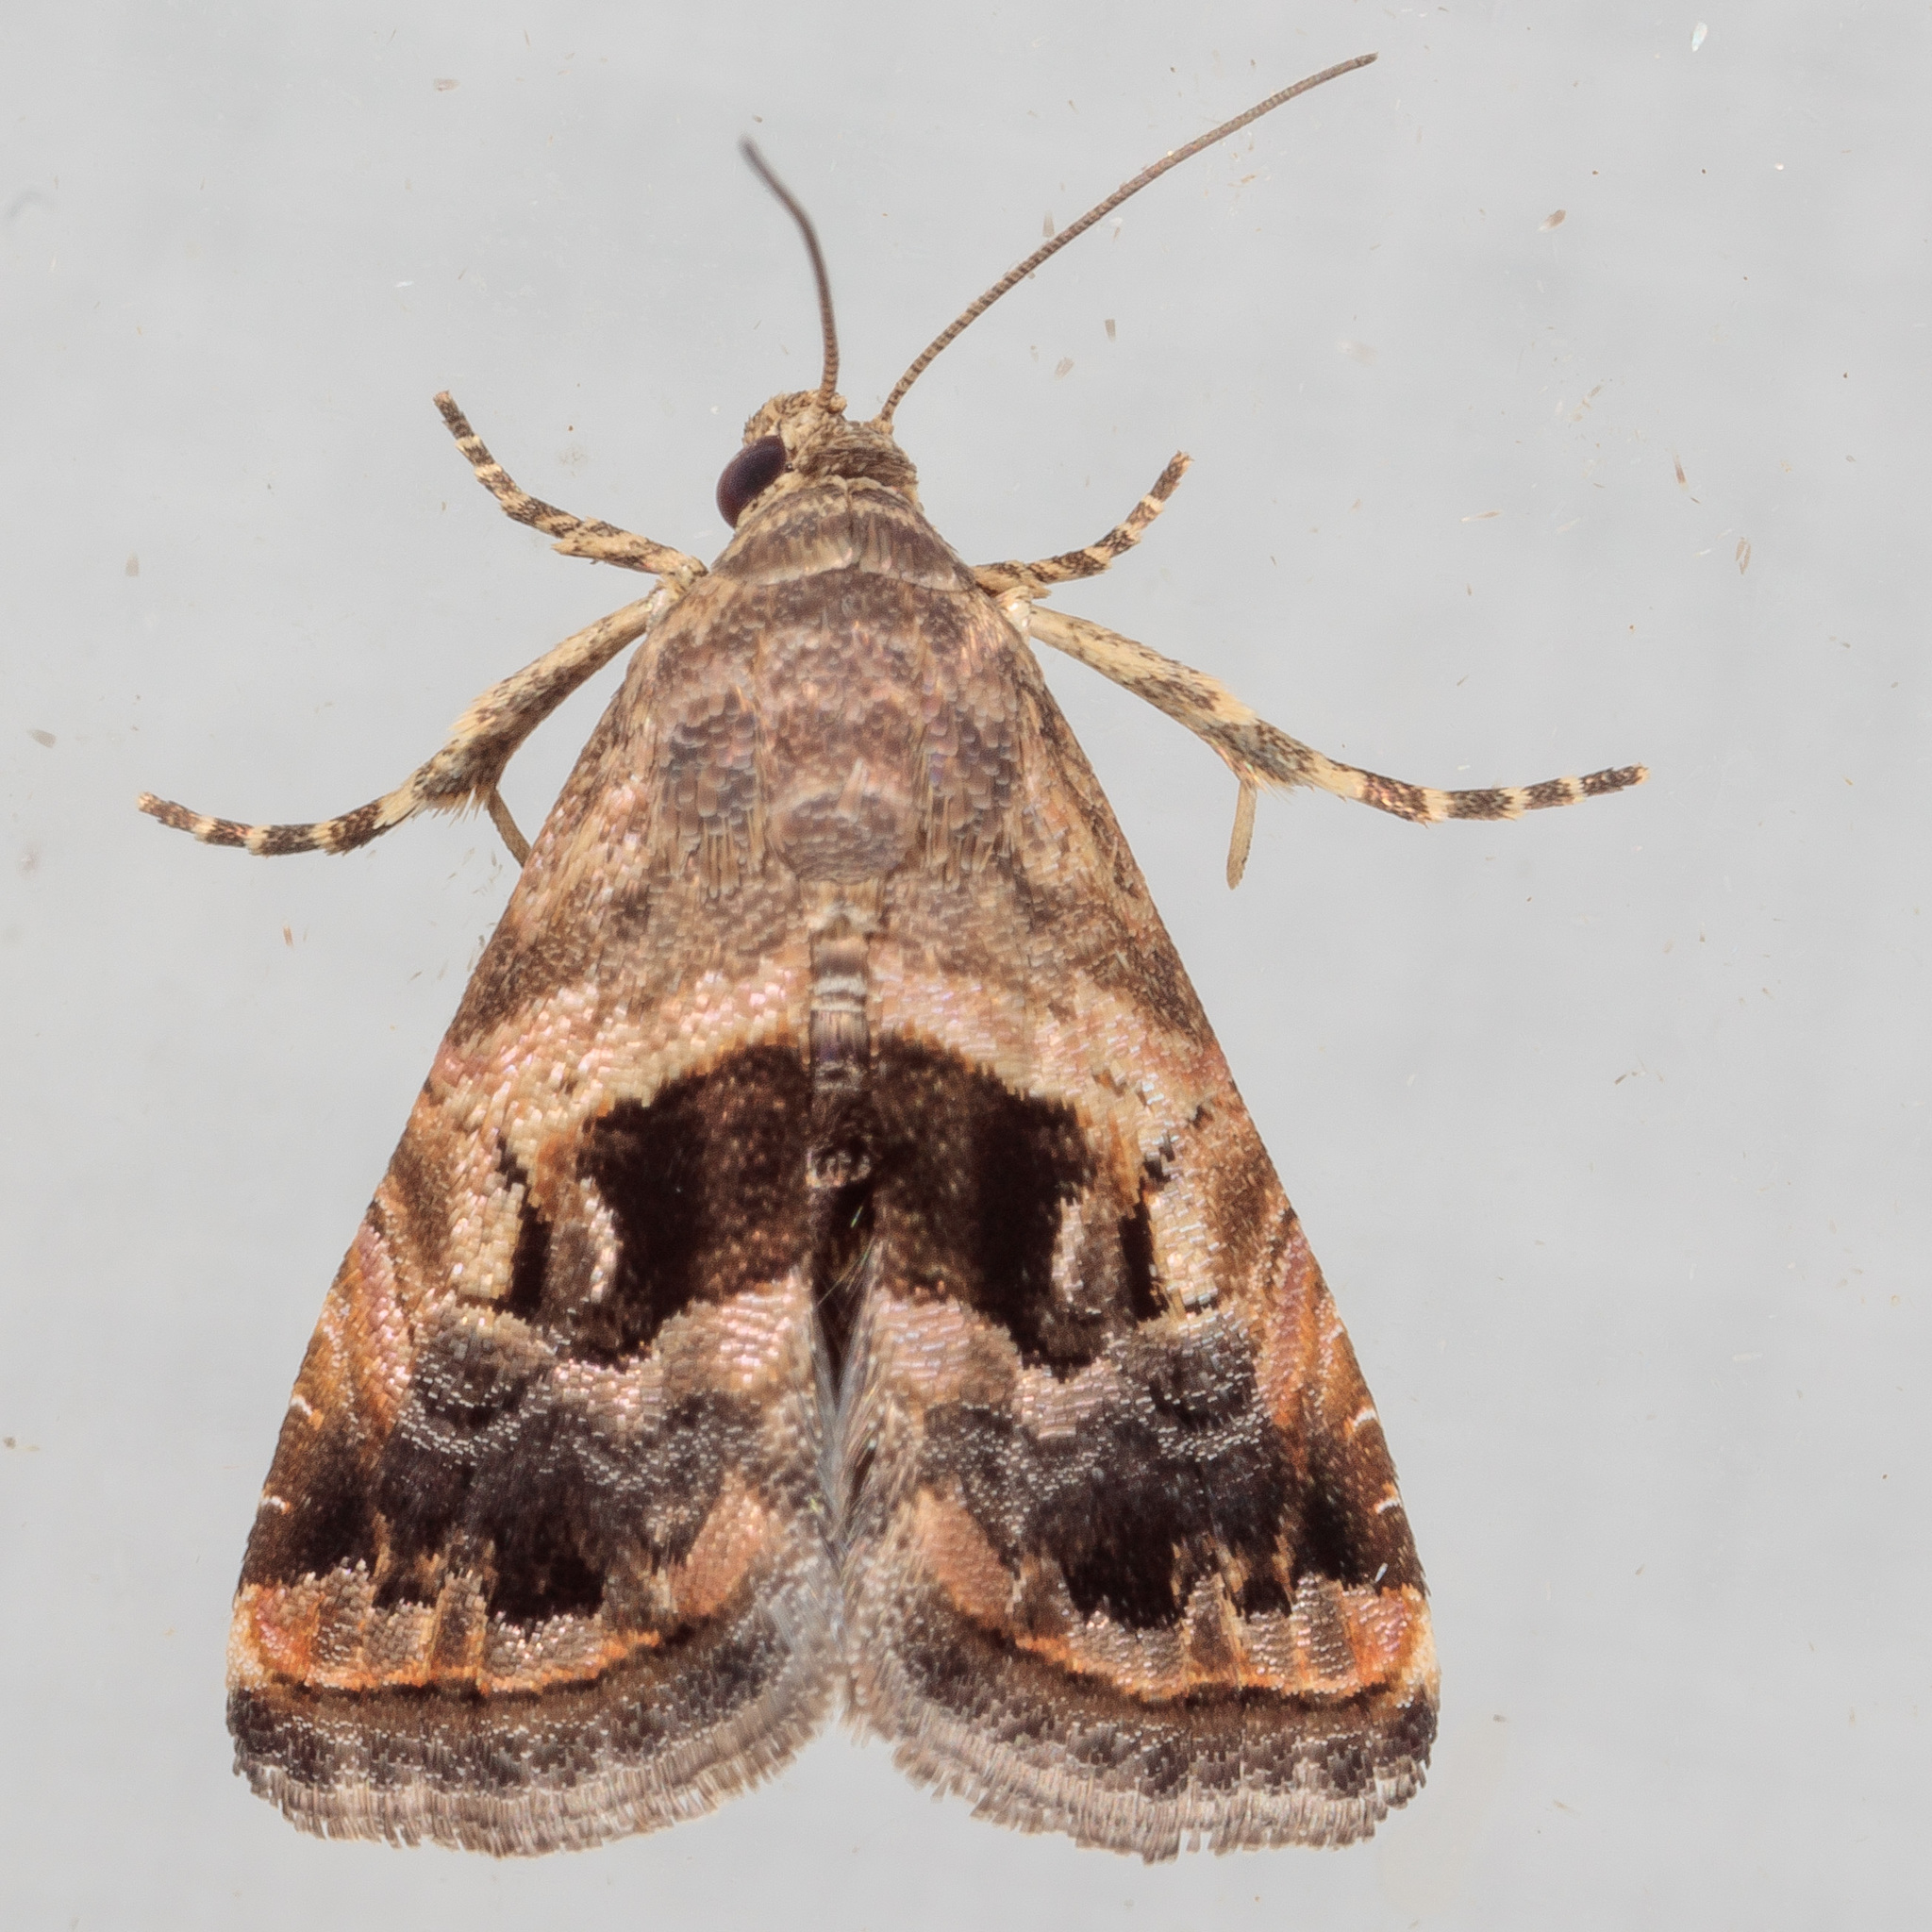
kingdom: Animalia
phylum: Arthropoda
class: Insecta
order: Lepidoptera
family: Noctuidae
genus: Tripudia
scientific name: Tripudia quadrifera
